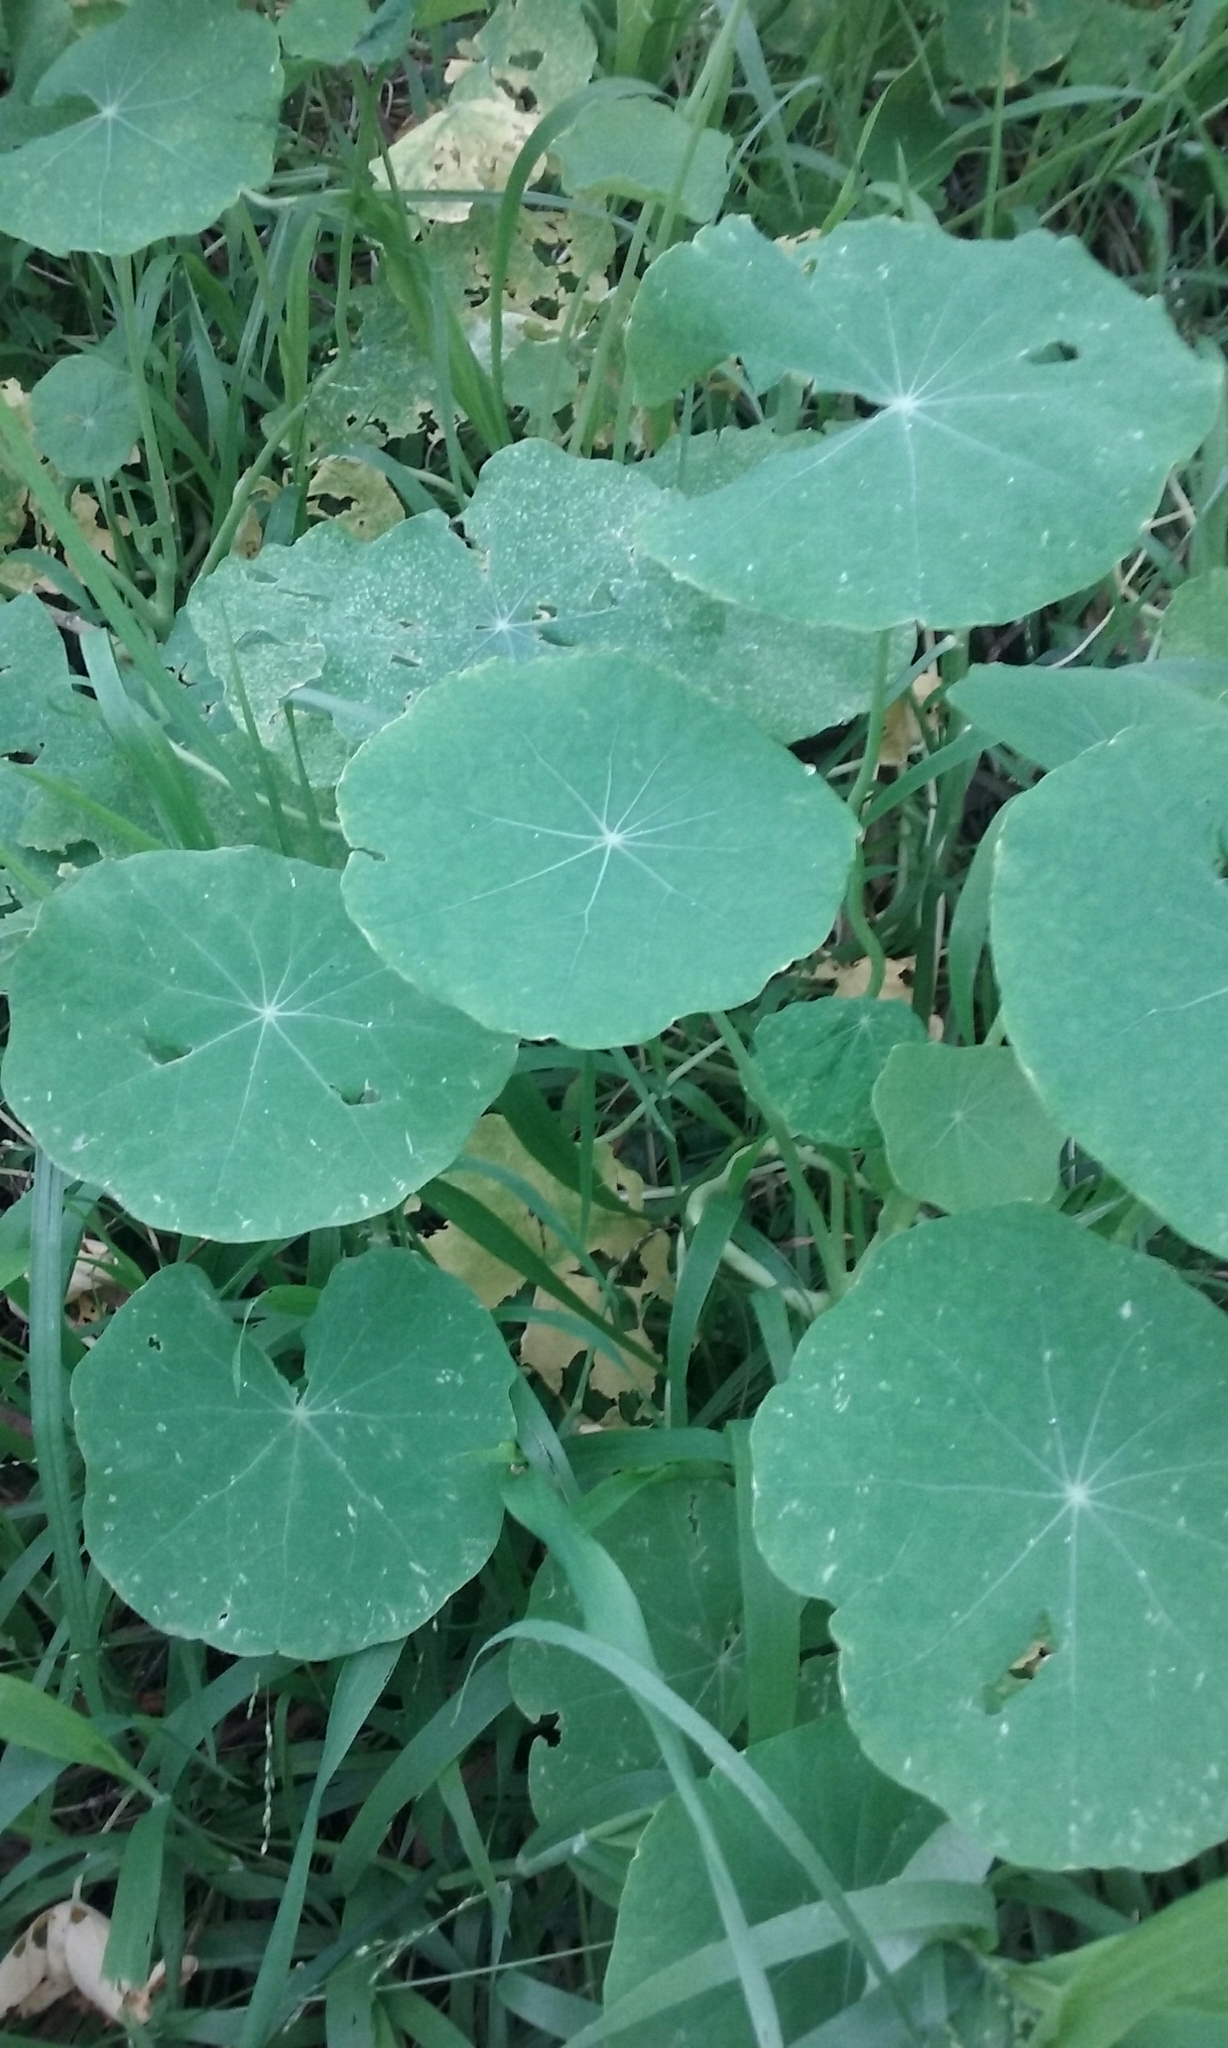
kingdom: Plantae
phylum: Tracheophyta
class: Magnoliopsida
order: Brassicales
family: Tropaeolaceae
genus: Tropaeolum
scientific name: Tropaeolum majus
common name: Nasturtium
